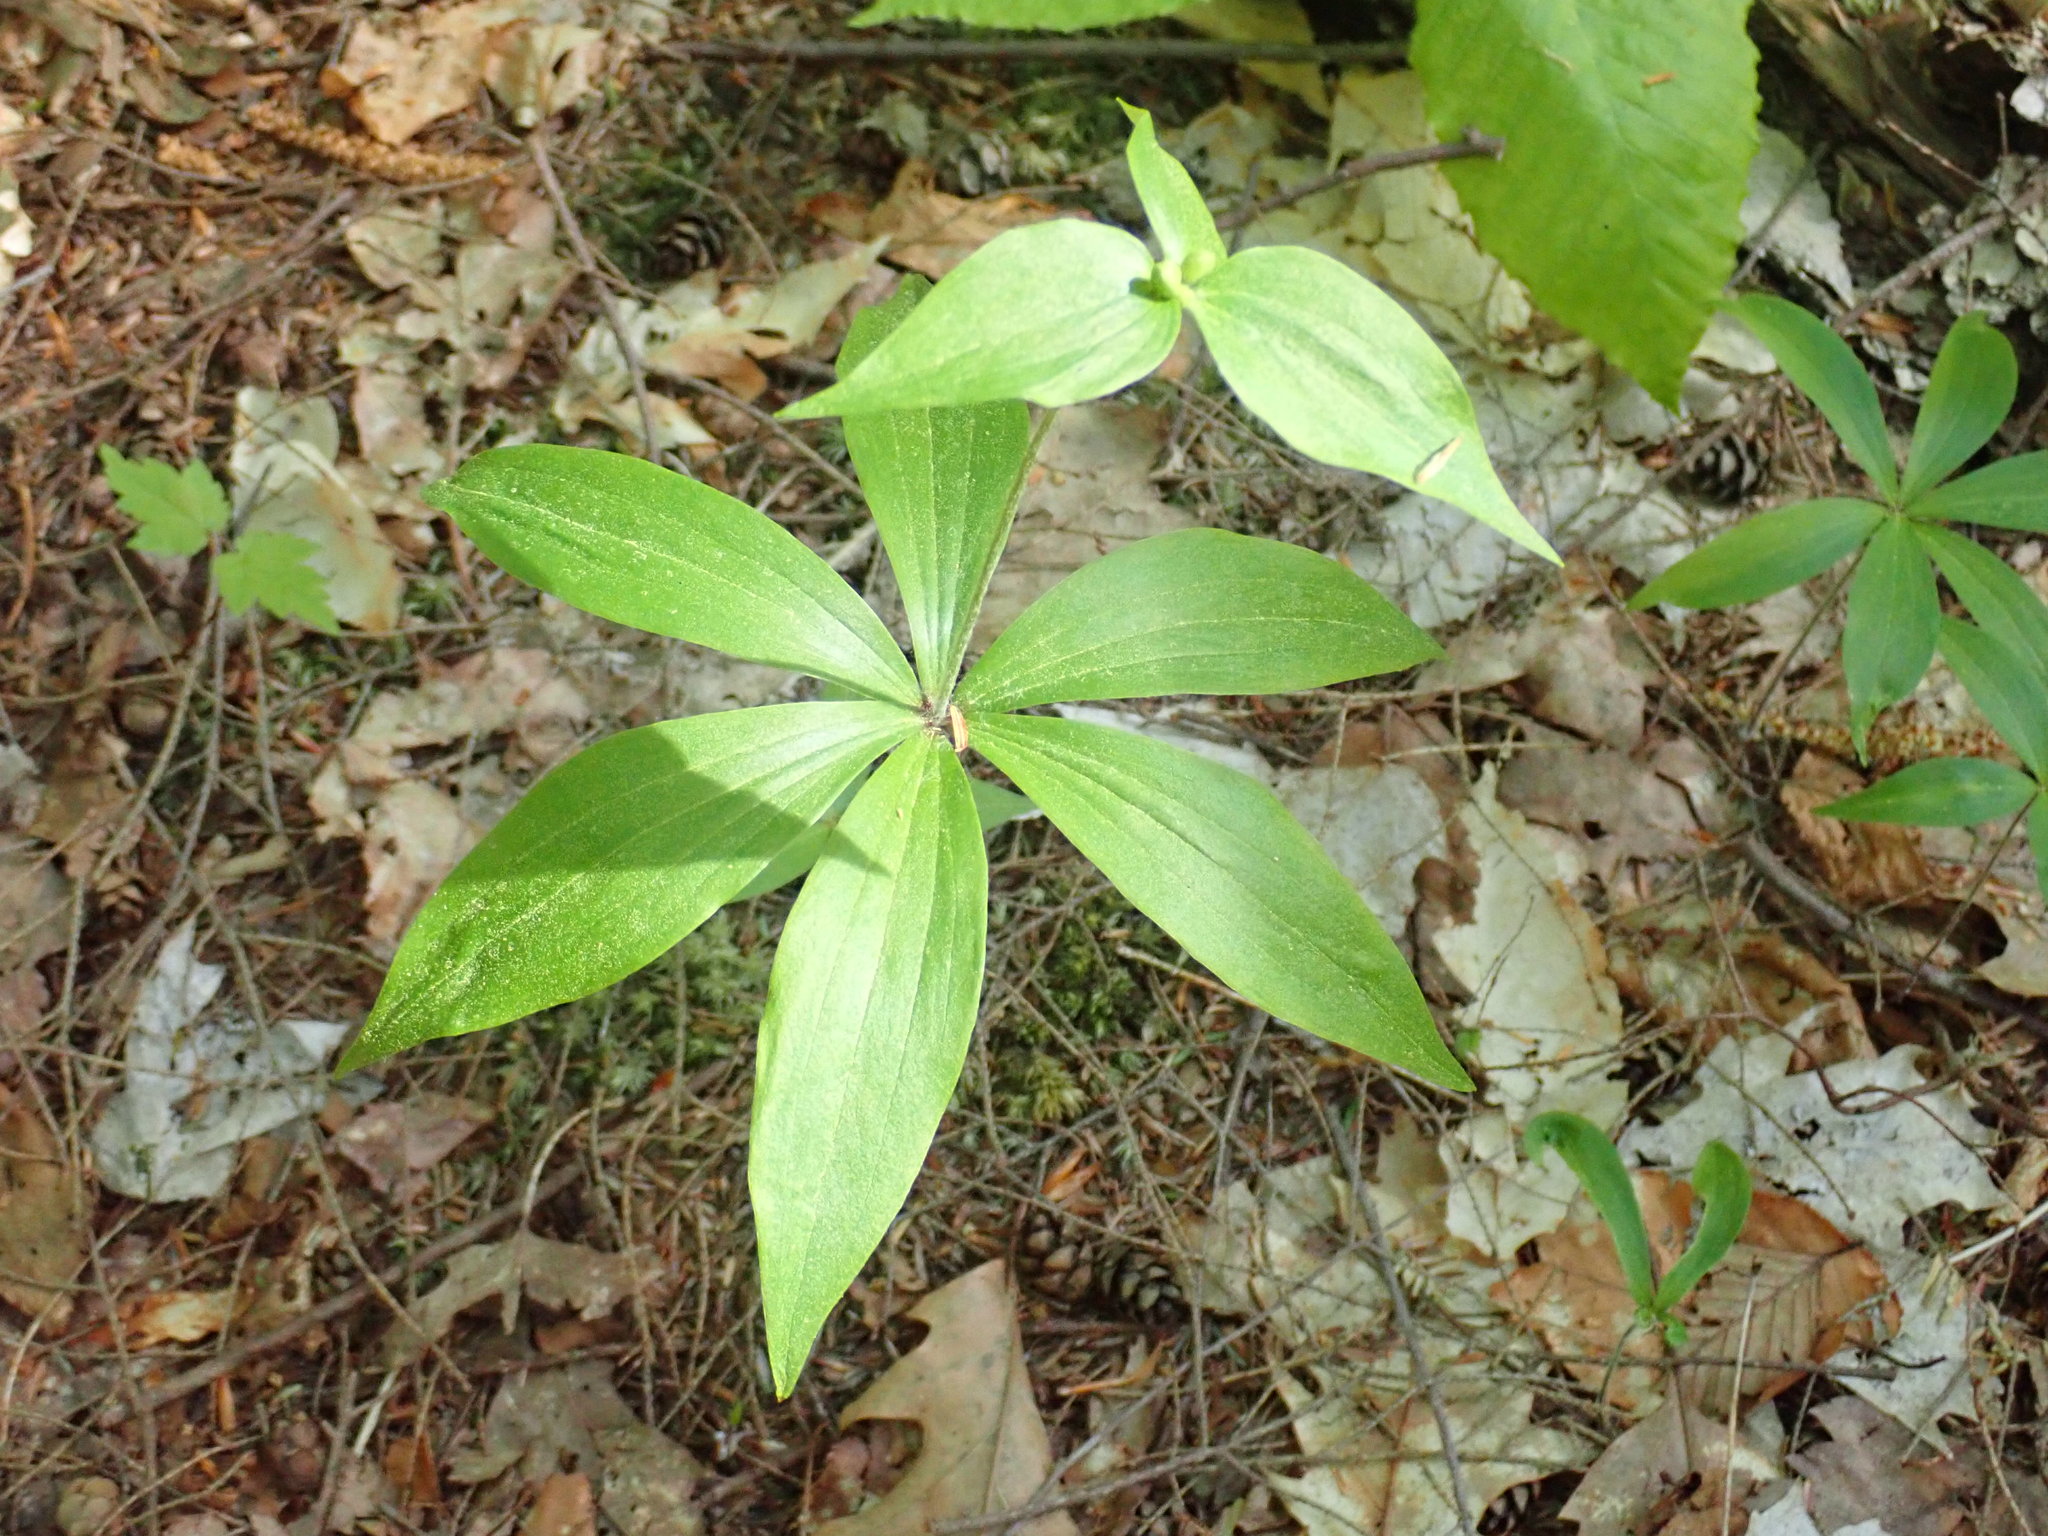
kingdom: Plantae
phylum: Tracheophyta
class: Liliopsida
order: Liliales
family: Liliaceae
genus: Medeola
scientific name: Medeola virginiana
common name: Indian cucumber-root
